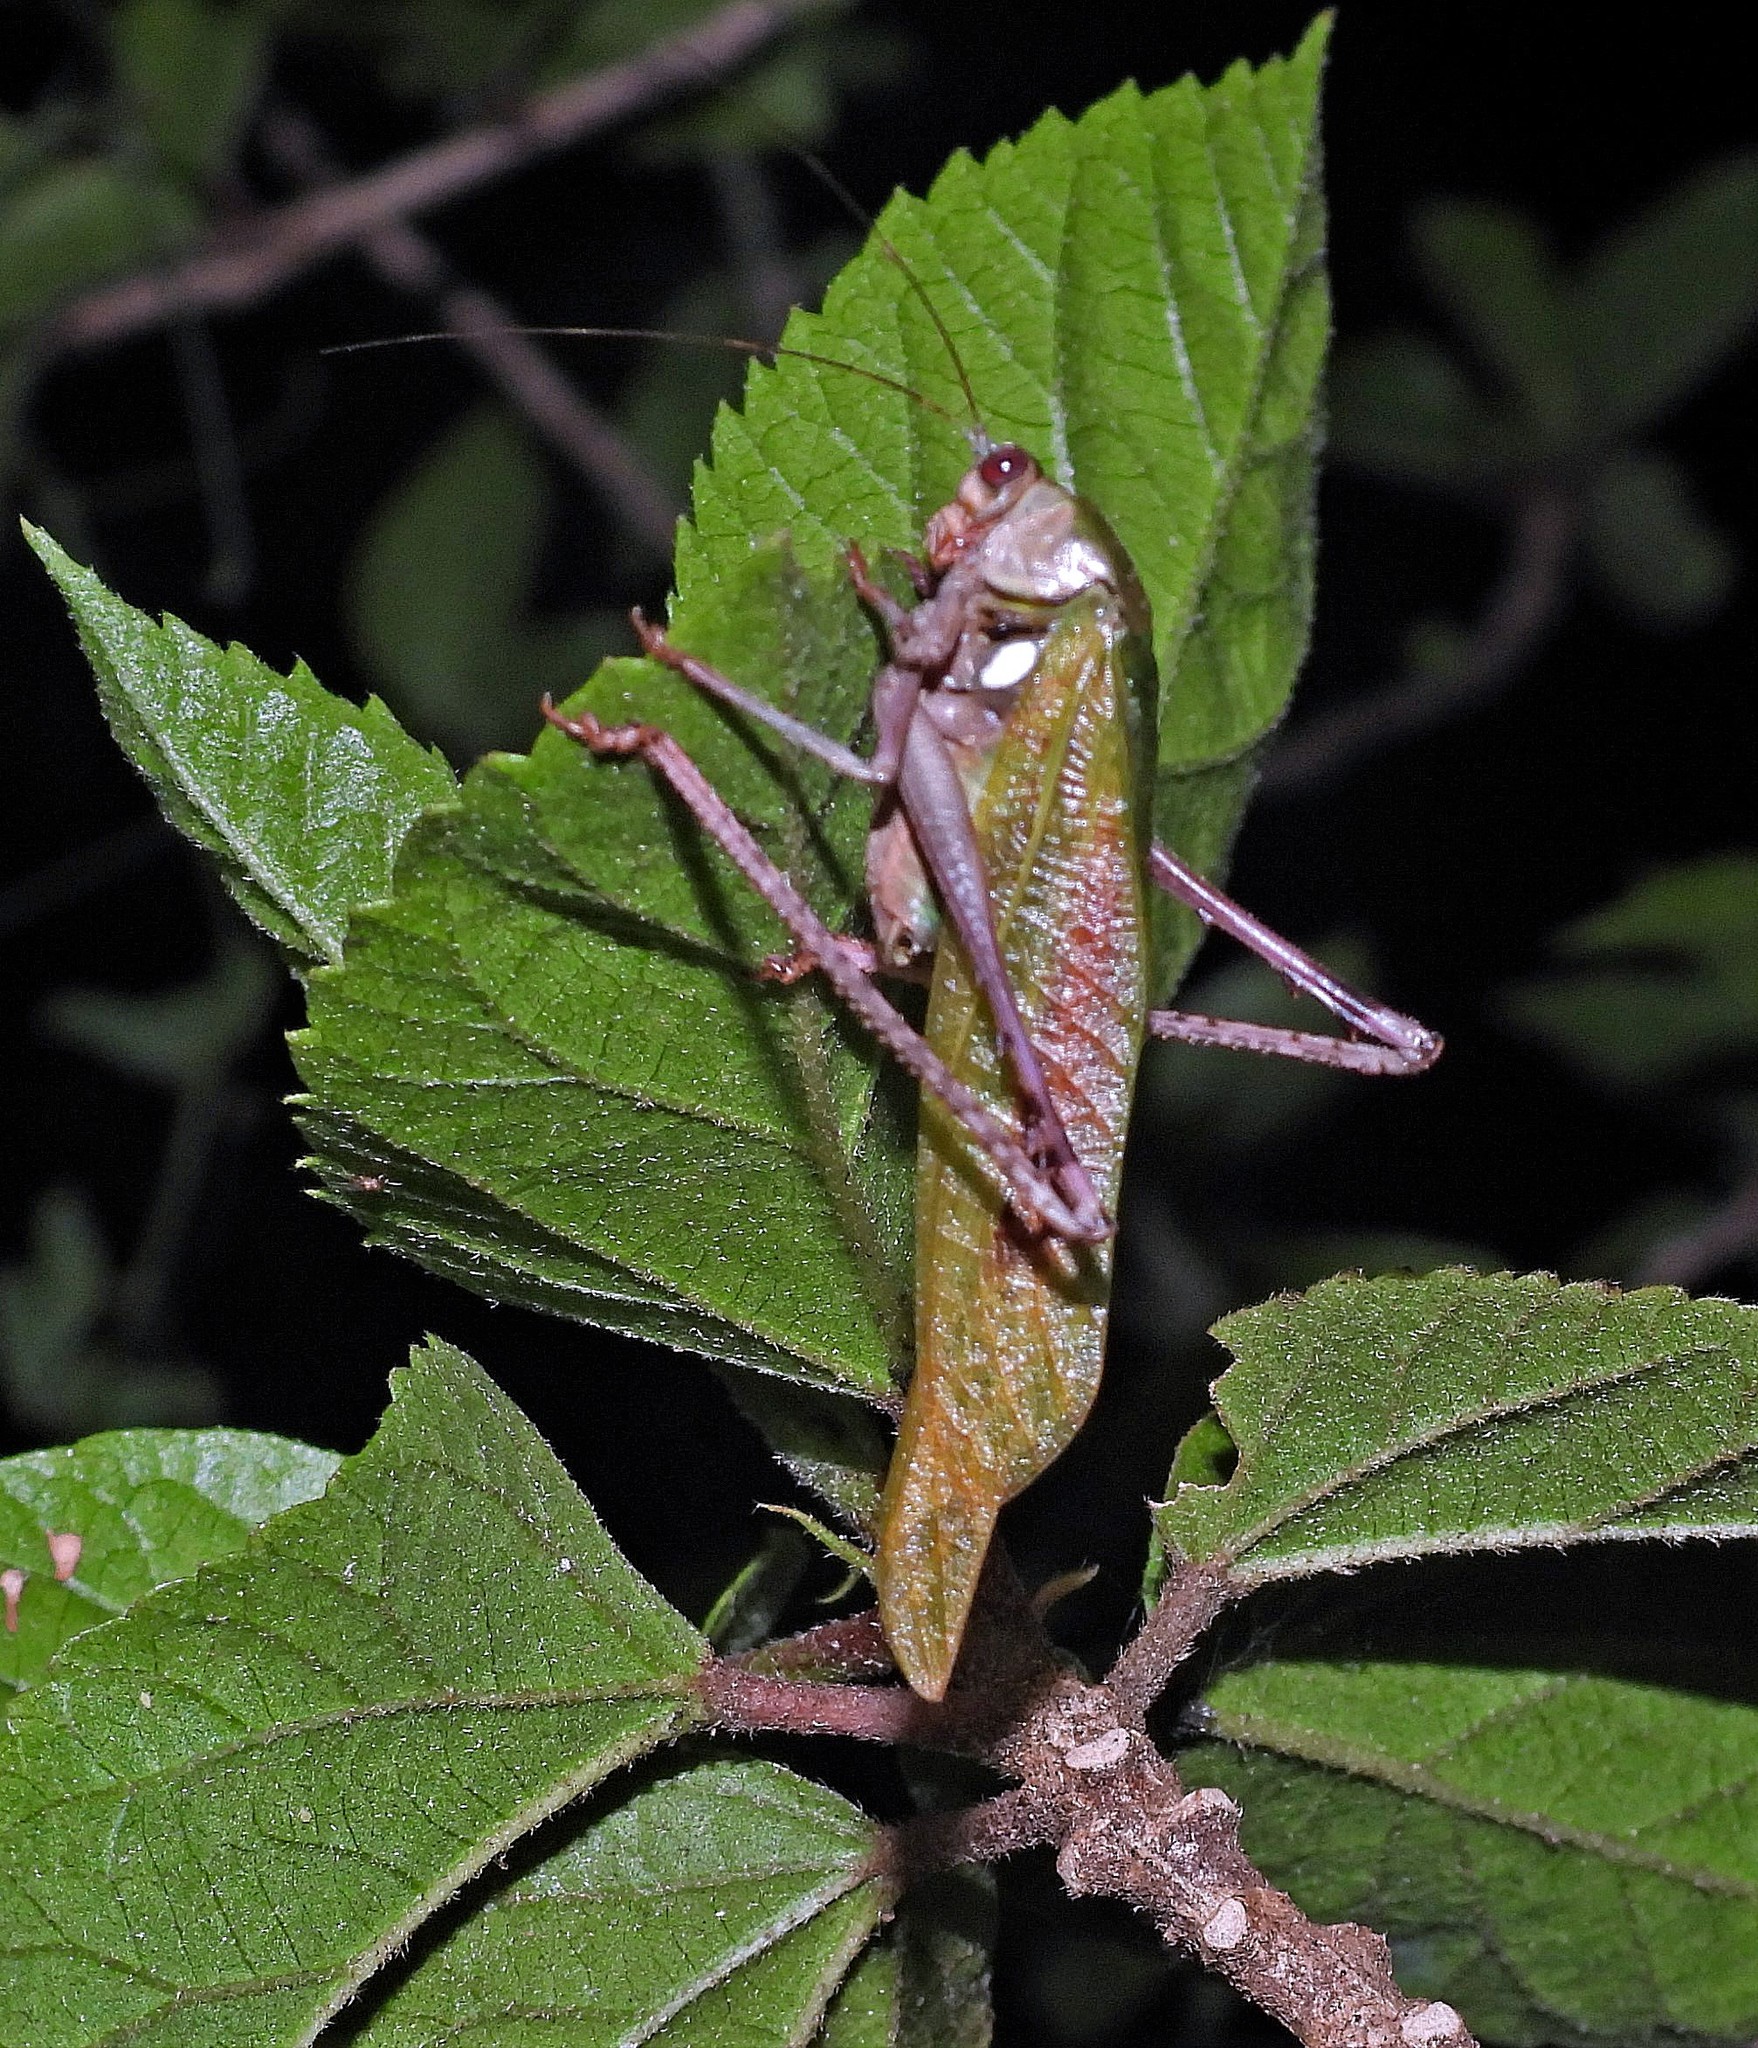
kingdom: Animalia
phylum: Arthropoda
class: Insecta
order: Orthoptera
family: Tettigoniidae
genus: Vellea
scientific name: Vellea cruenta
